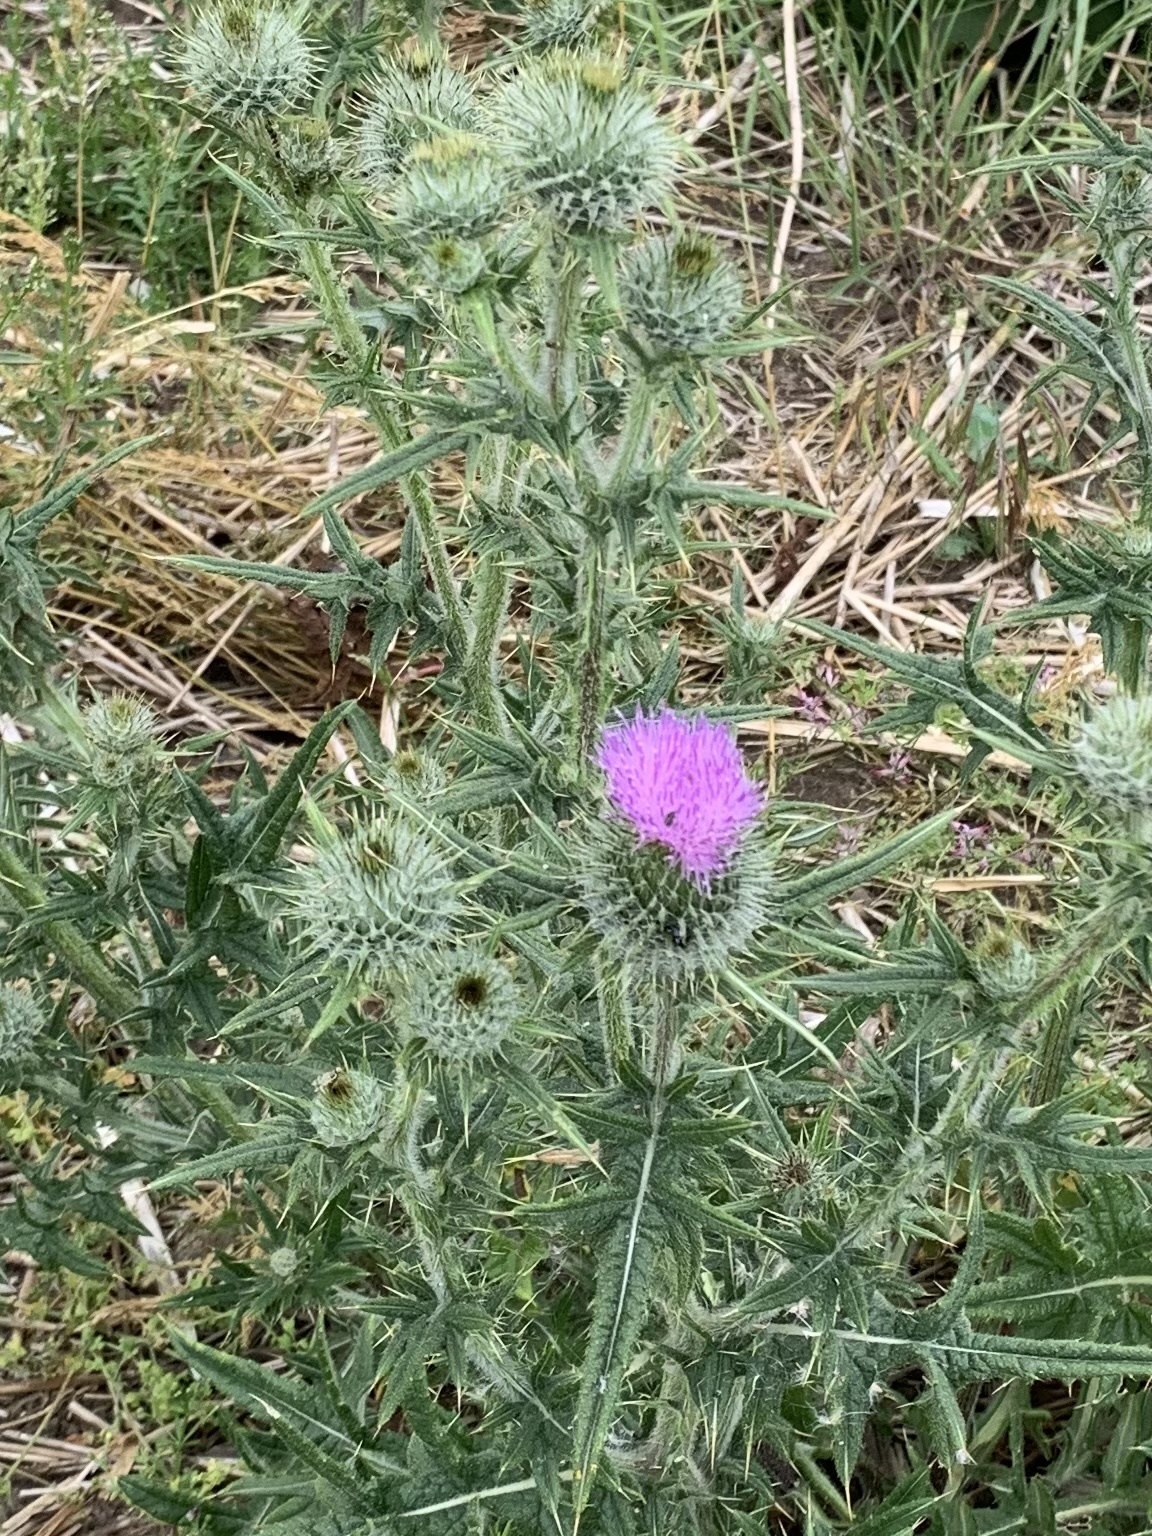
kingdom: Plantae
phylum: Tracheophyta
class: Magnoliopsida
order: Asterales
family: Asteraceae
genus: Cirsium
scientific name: Cirsium vulgare
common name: Bull thistle
